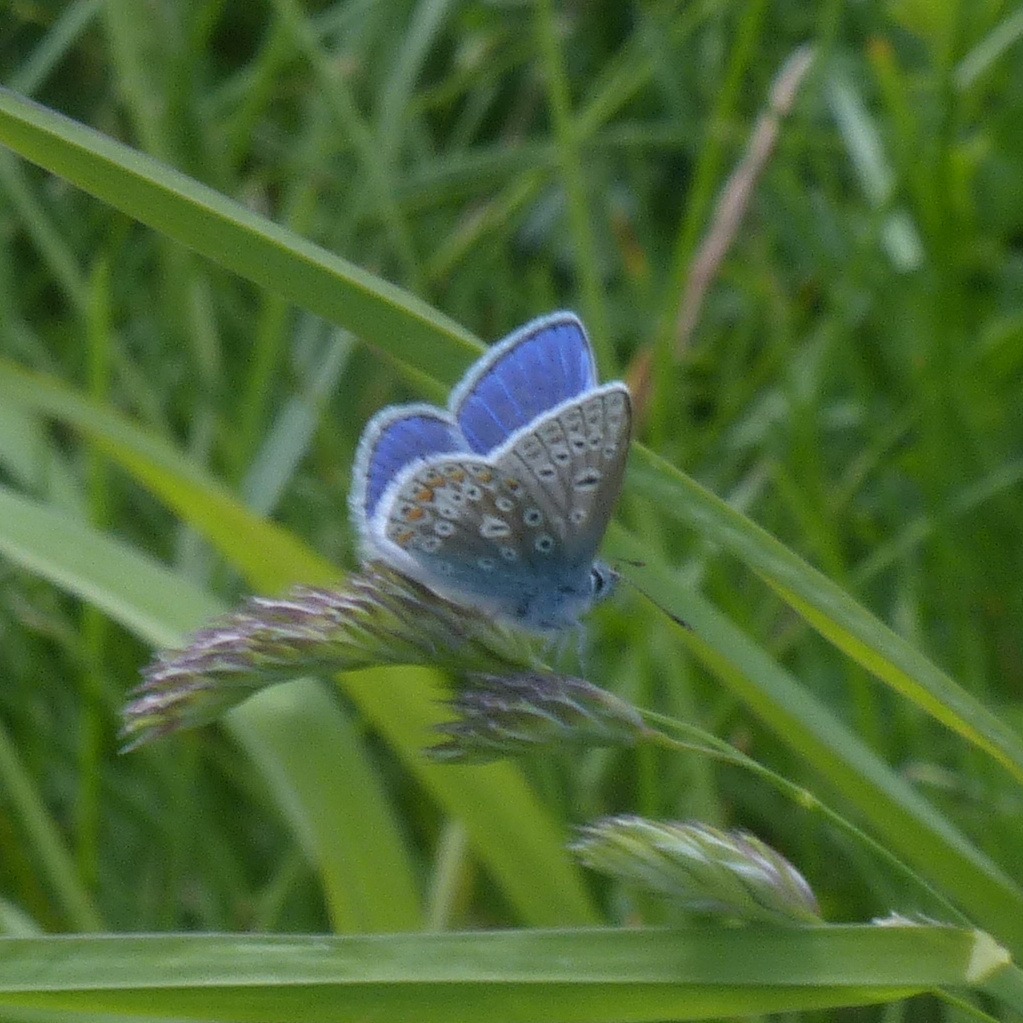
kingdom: Animalia
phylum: Arthropoda
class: Insecta
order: Lepidoptera
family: Lycaenidae
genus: Polyommatus
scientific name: Polyommatus icarus
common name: Common blue
